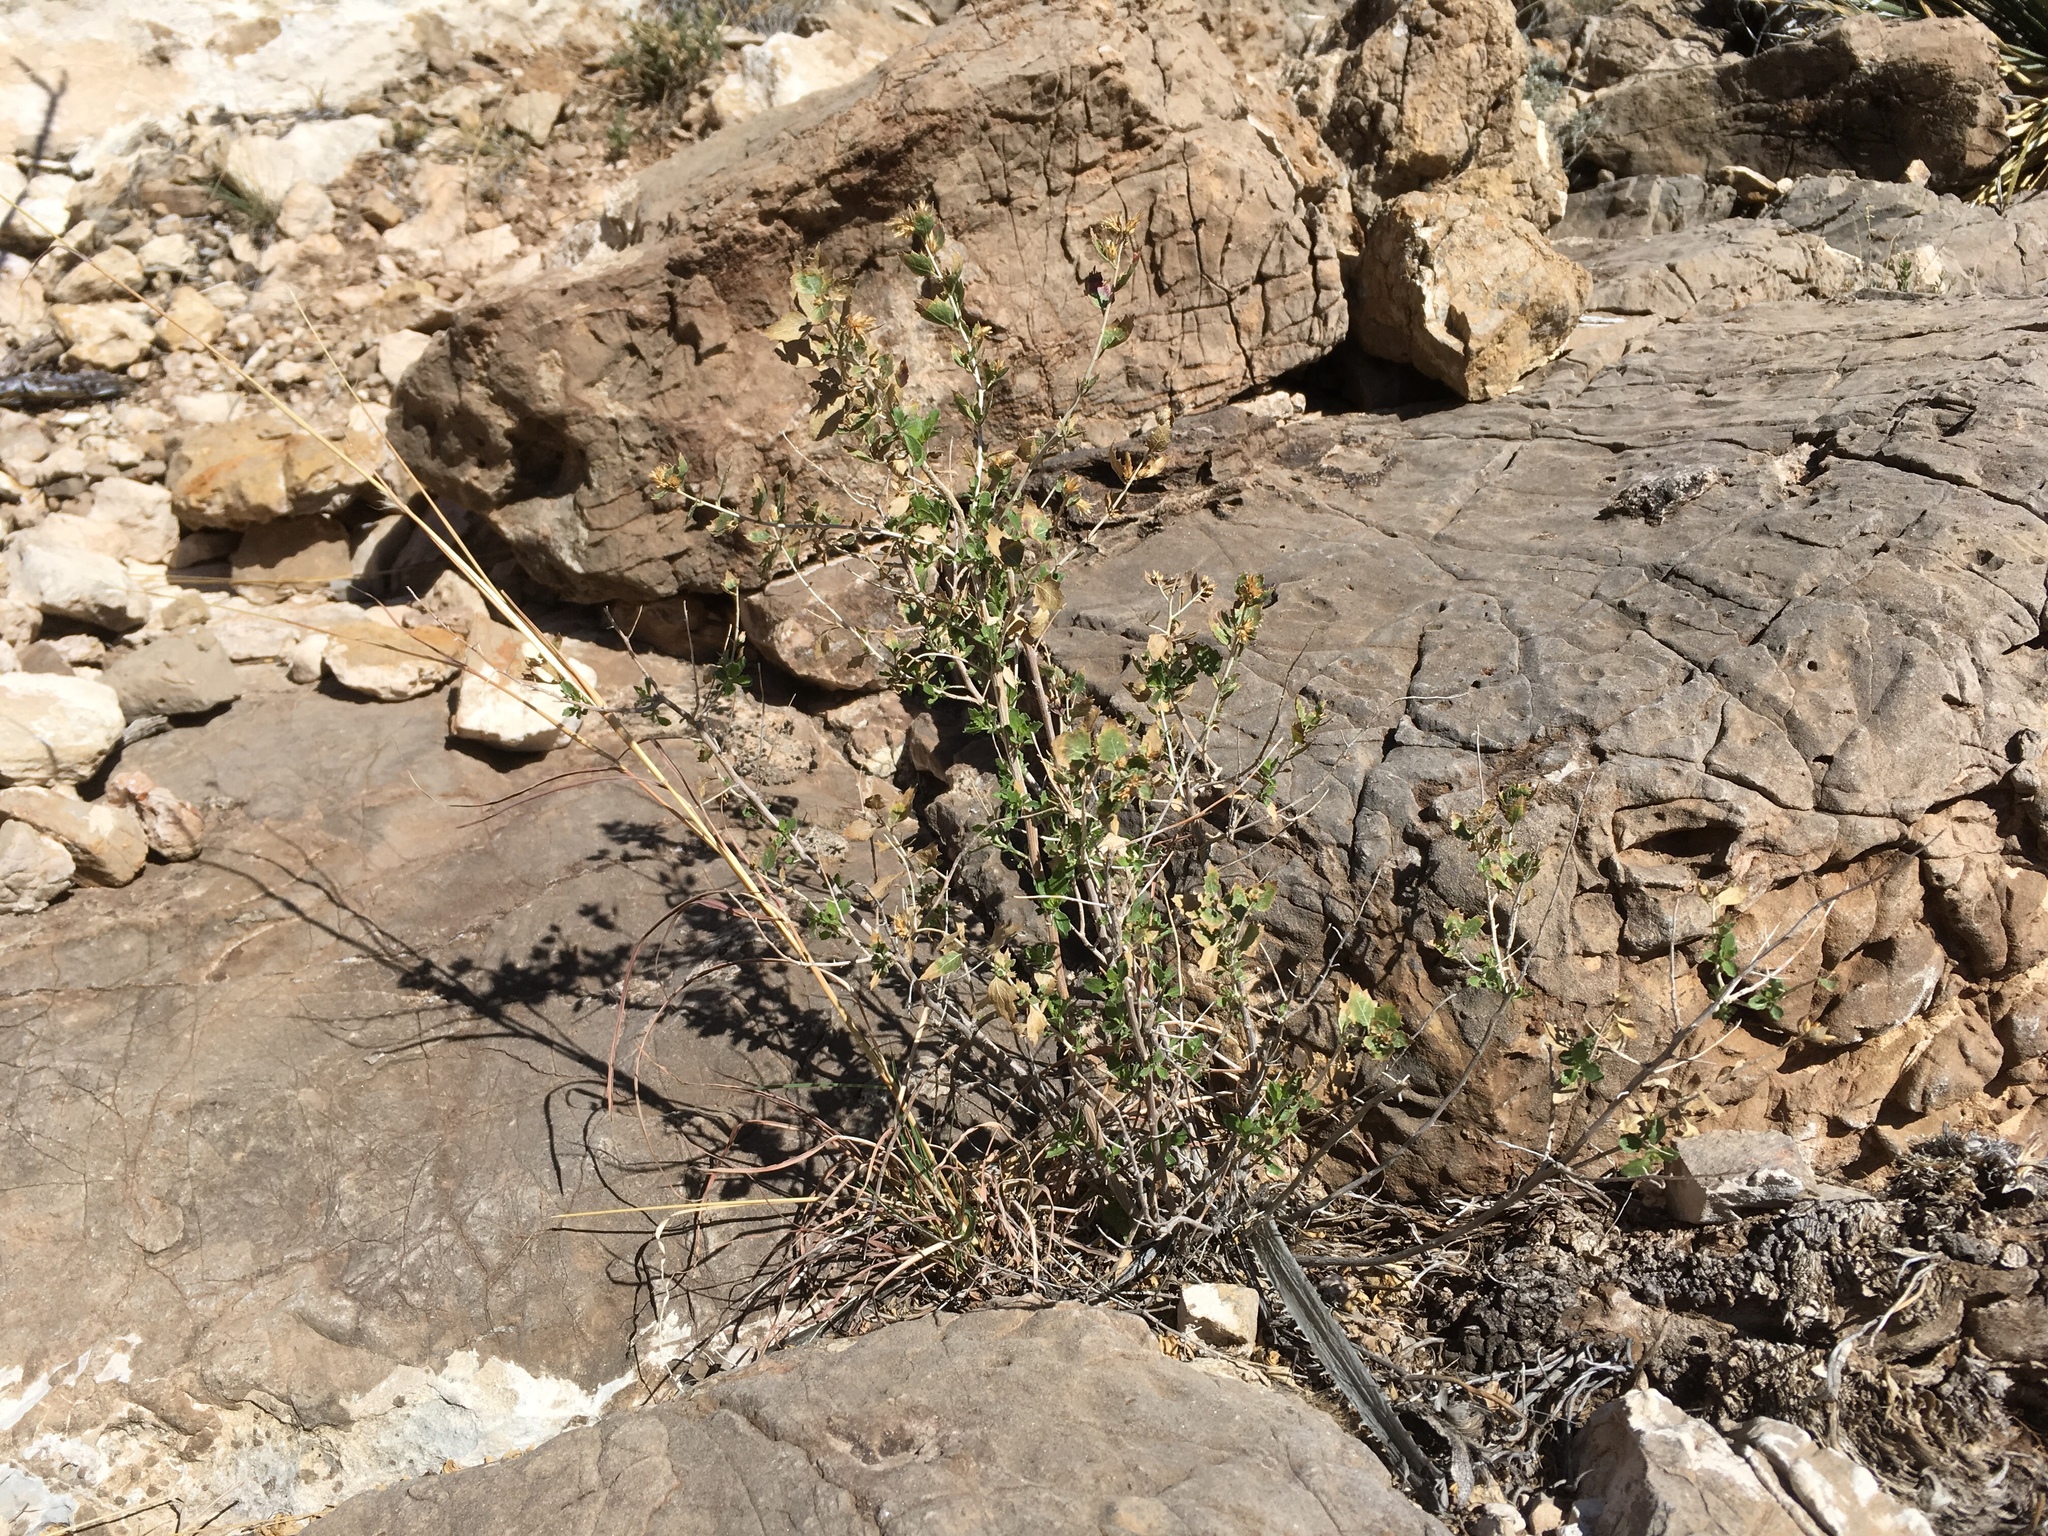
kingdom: Plantae
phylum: Tracheophyta
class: Magnoliopsida
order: Asterales
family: Asteraceae
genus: Brickellia
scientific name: Brickellia baccharidea
